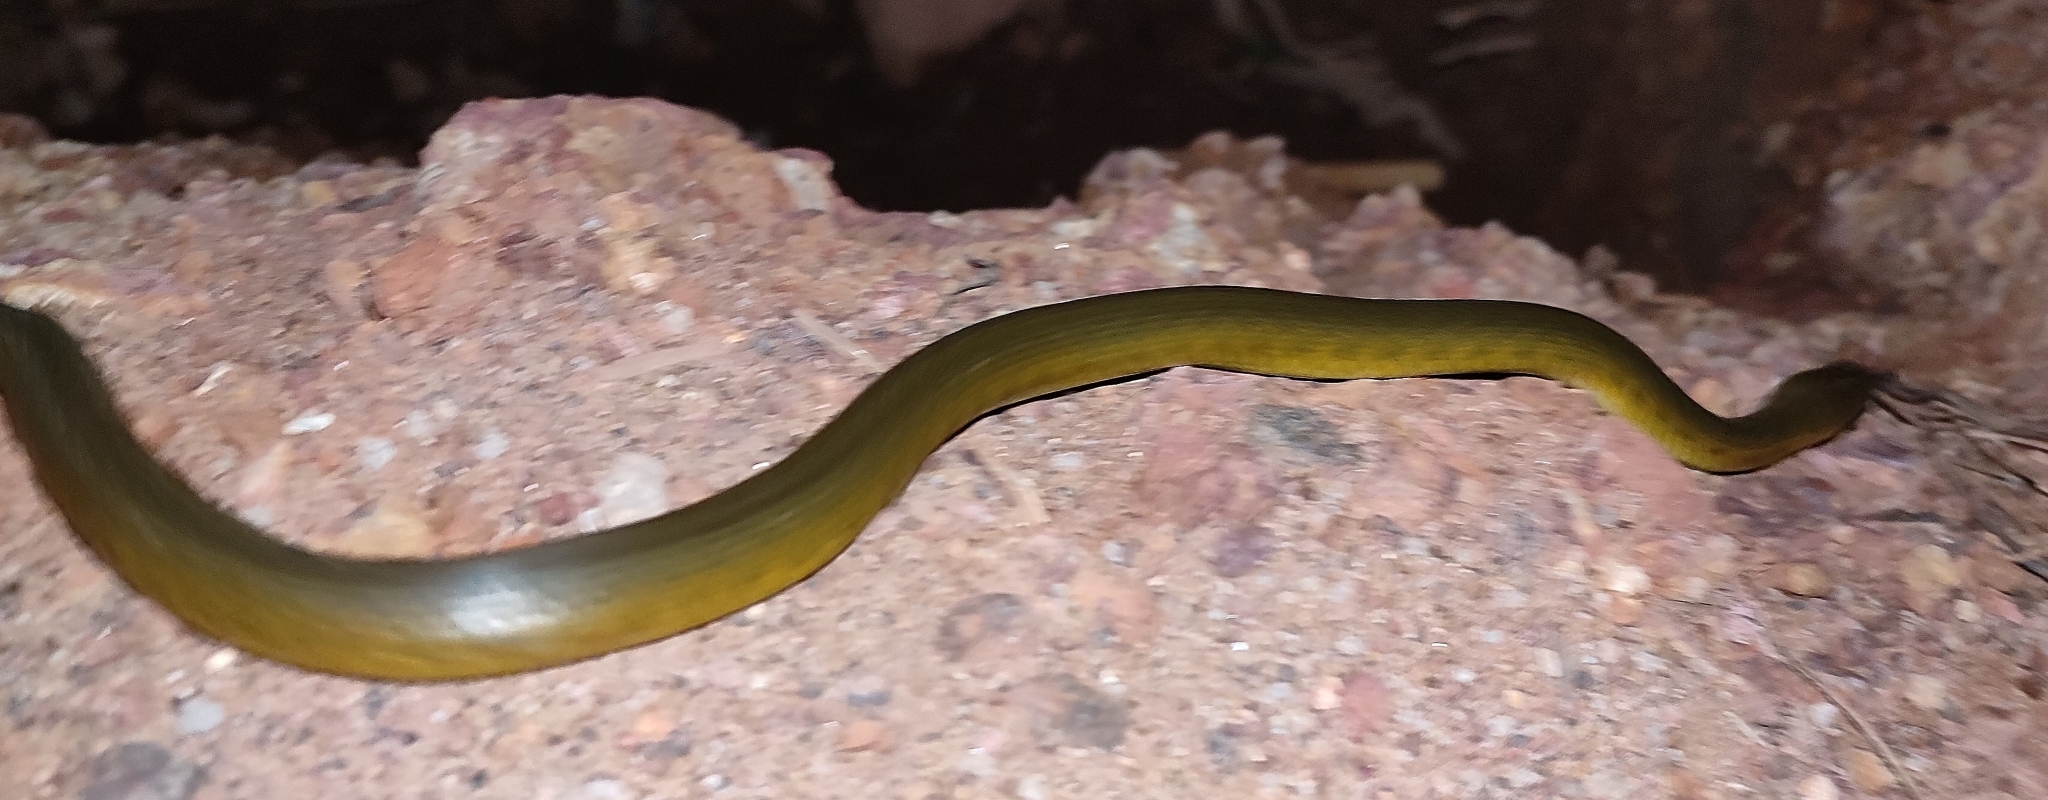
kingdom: Animalia
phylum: Chordata
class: Squamata
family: Colubridae
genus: Fowlea
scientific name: Fowlea piscator
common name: Asiatic water snake
